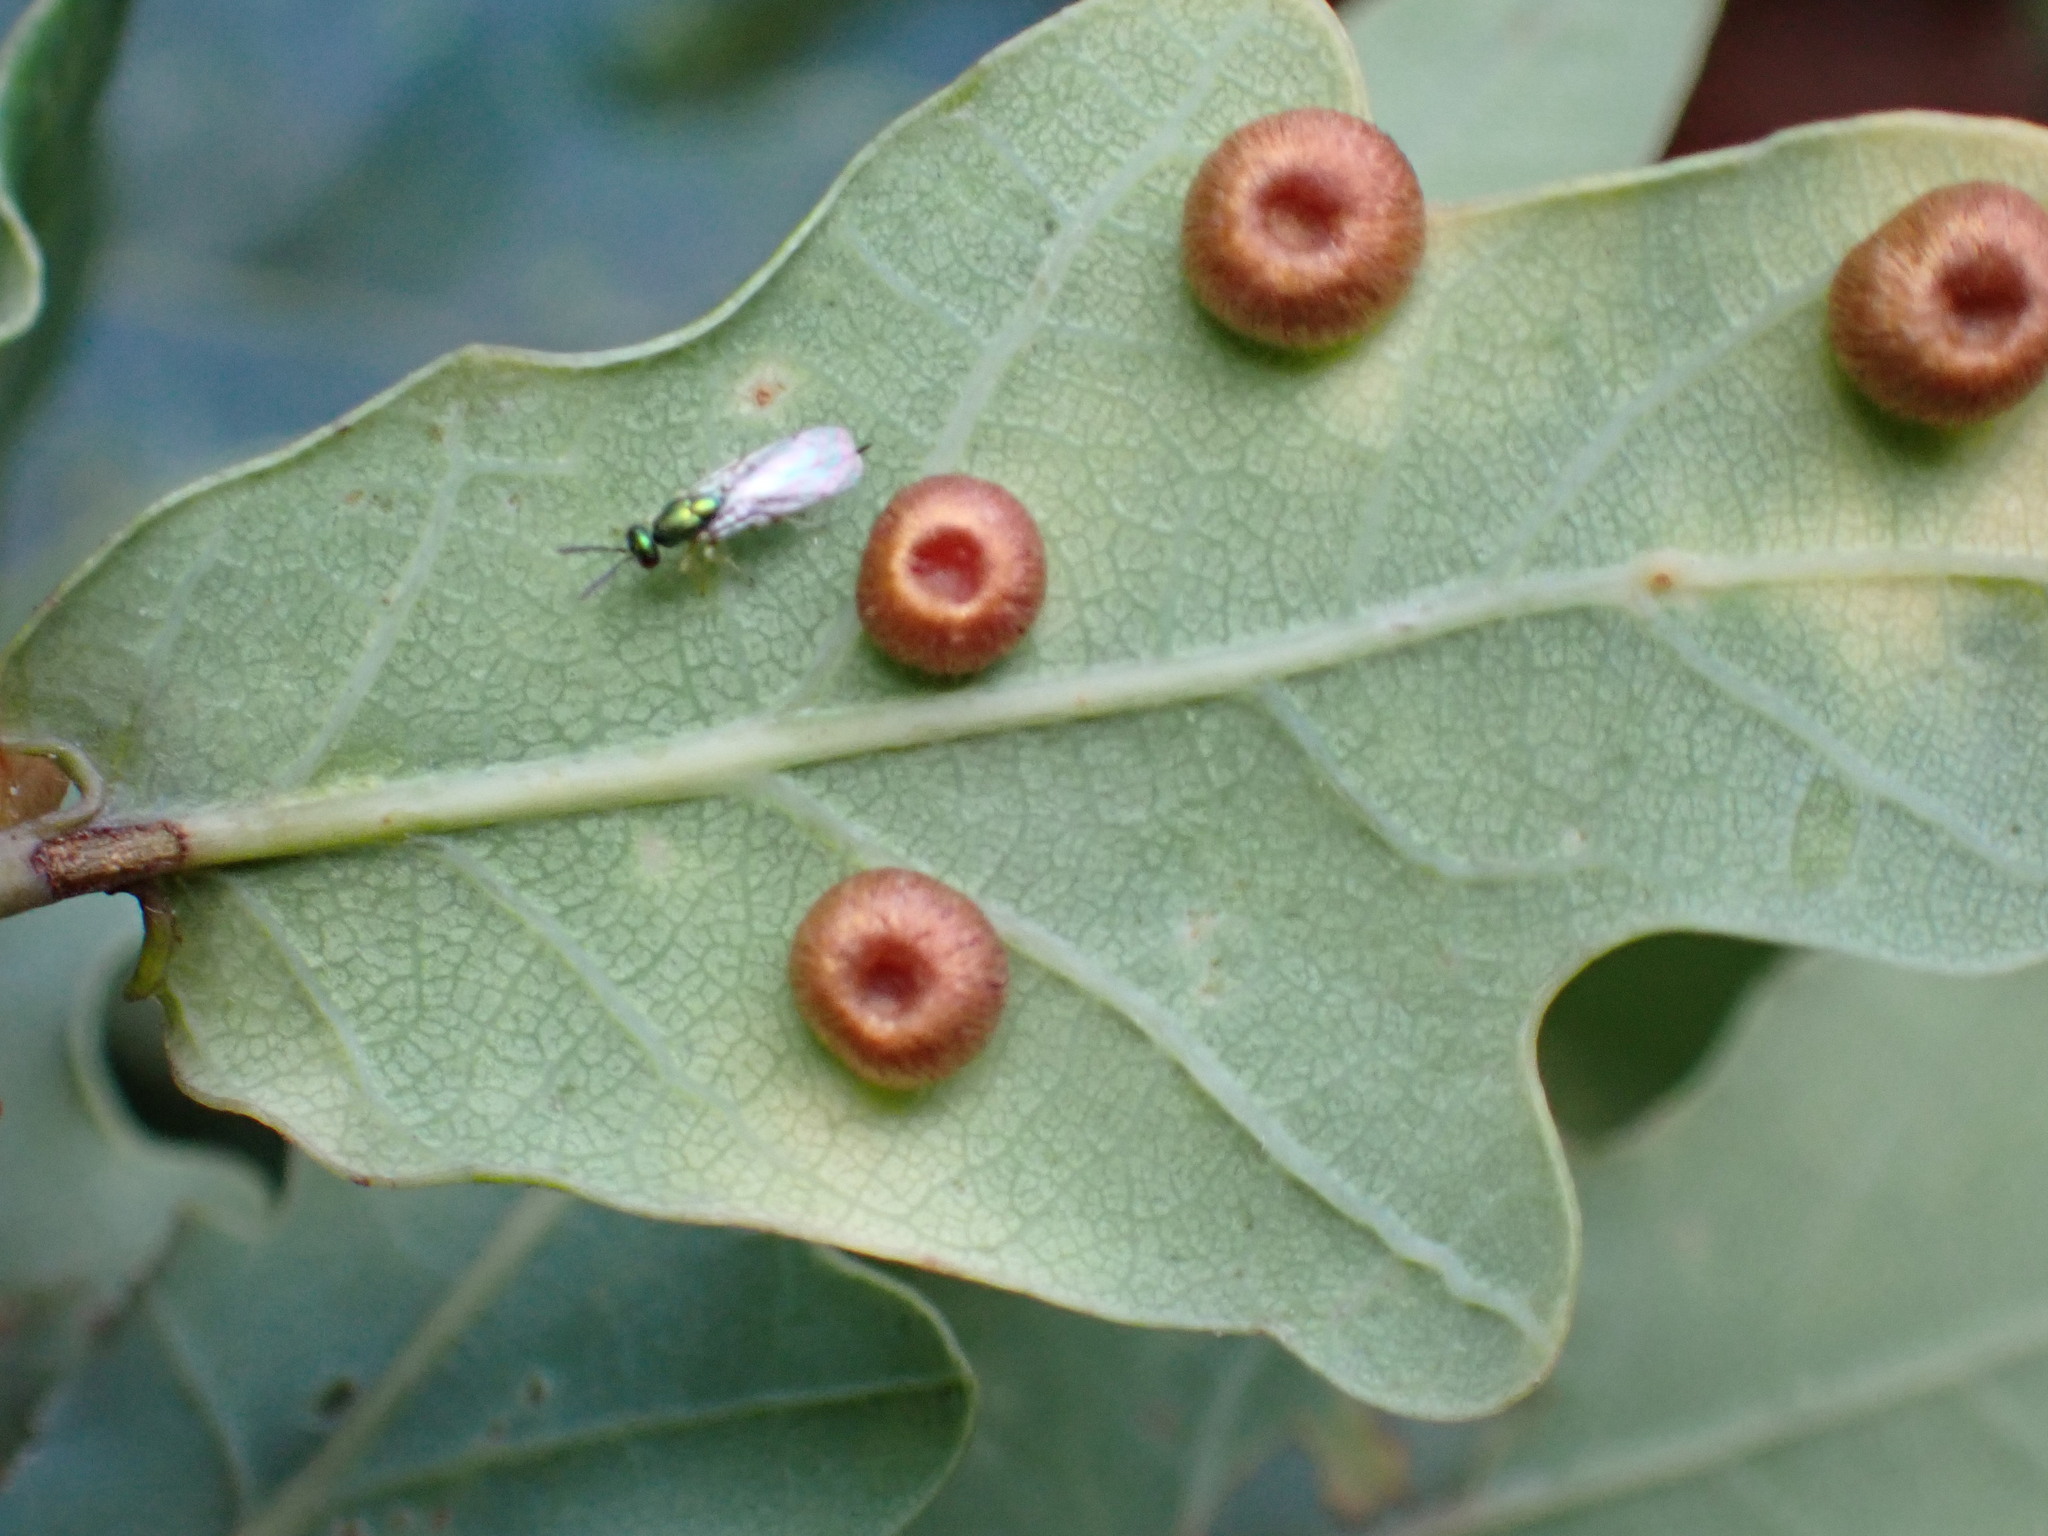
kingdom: Animalia
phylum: Arthropoda
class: Insecta
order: Hymenoptera
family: Cynipidae
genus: Neuroterus
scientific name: Neuroterus numismalis
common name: Silk-button spangle gall
